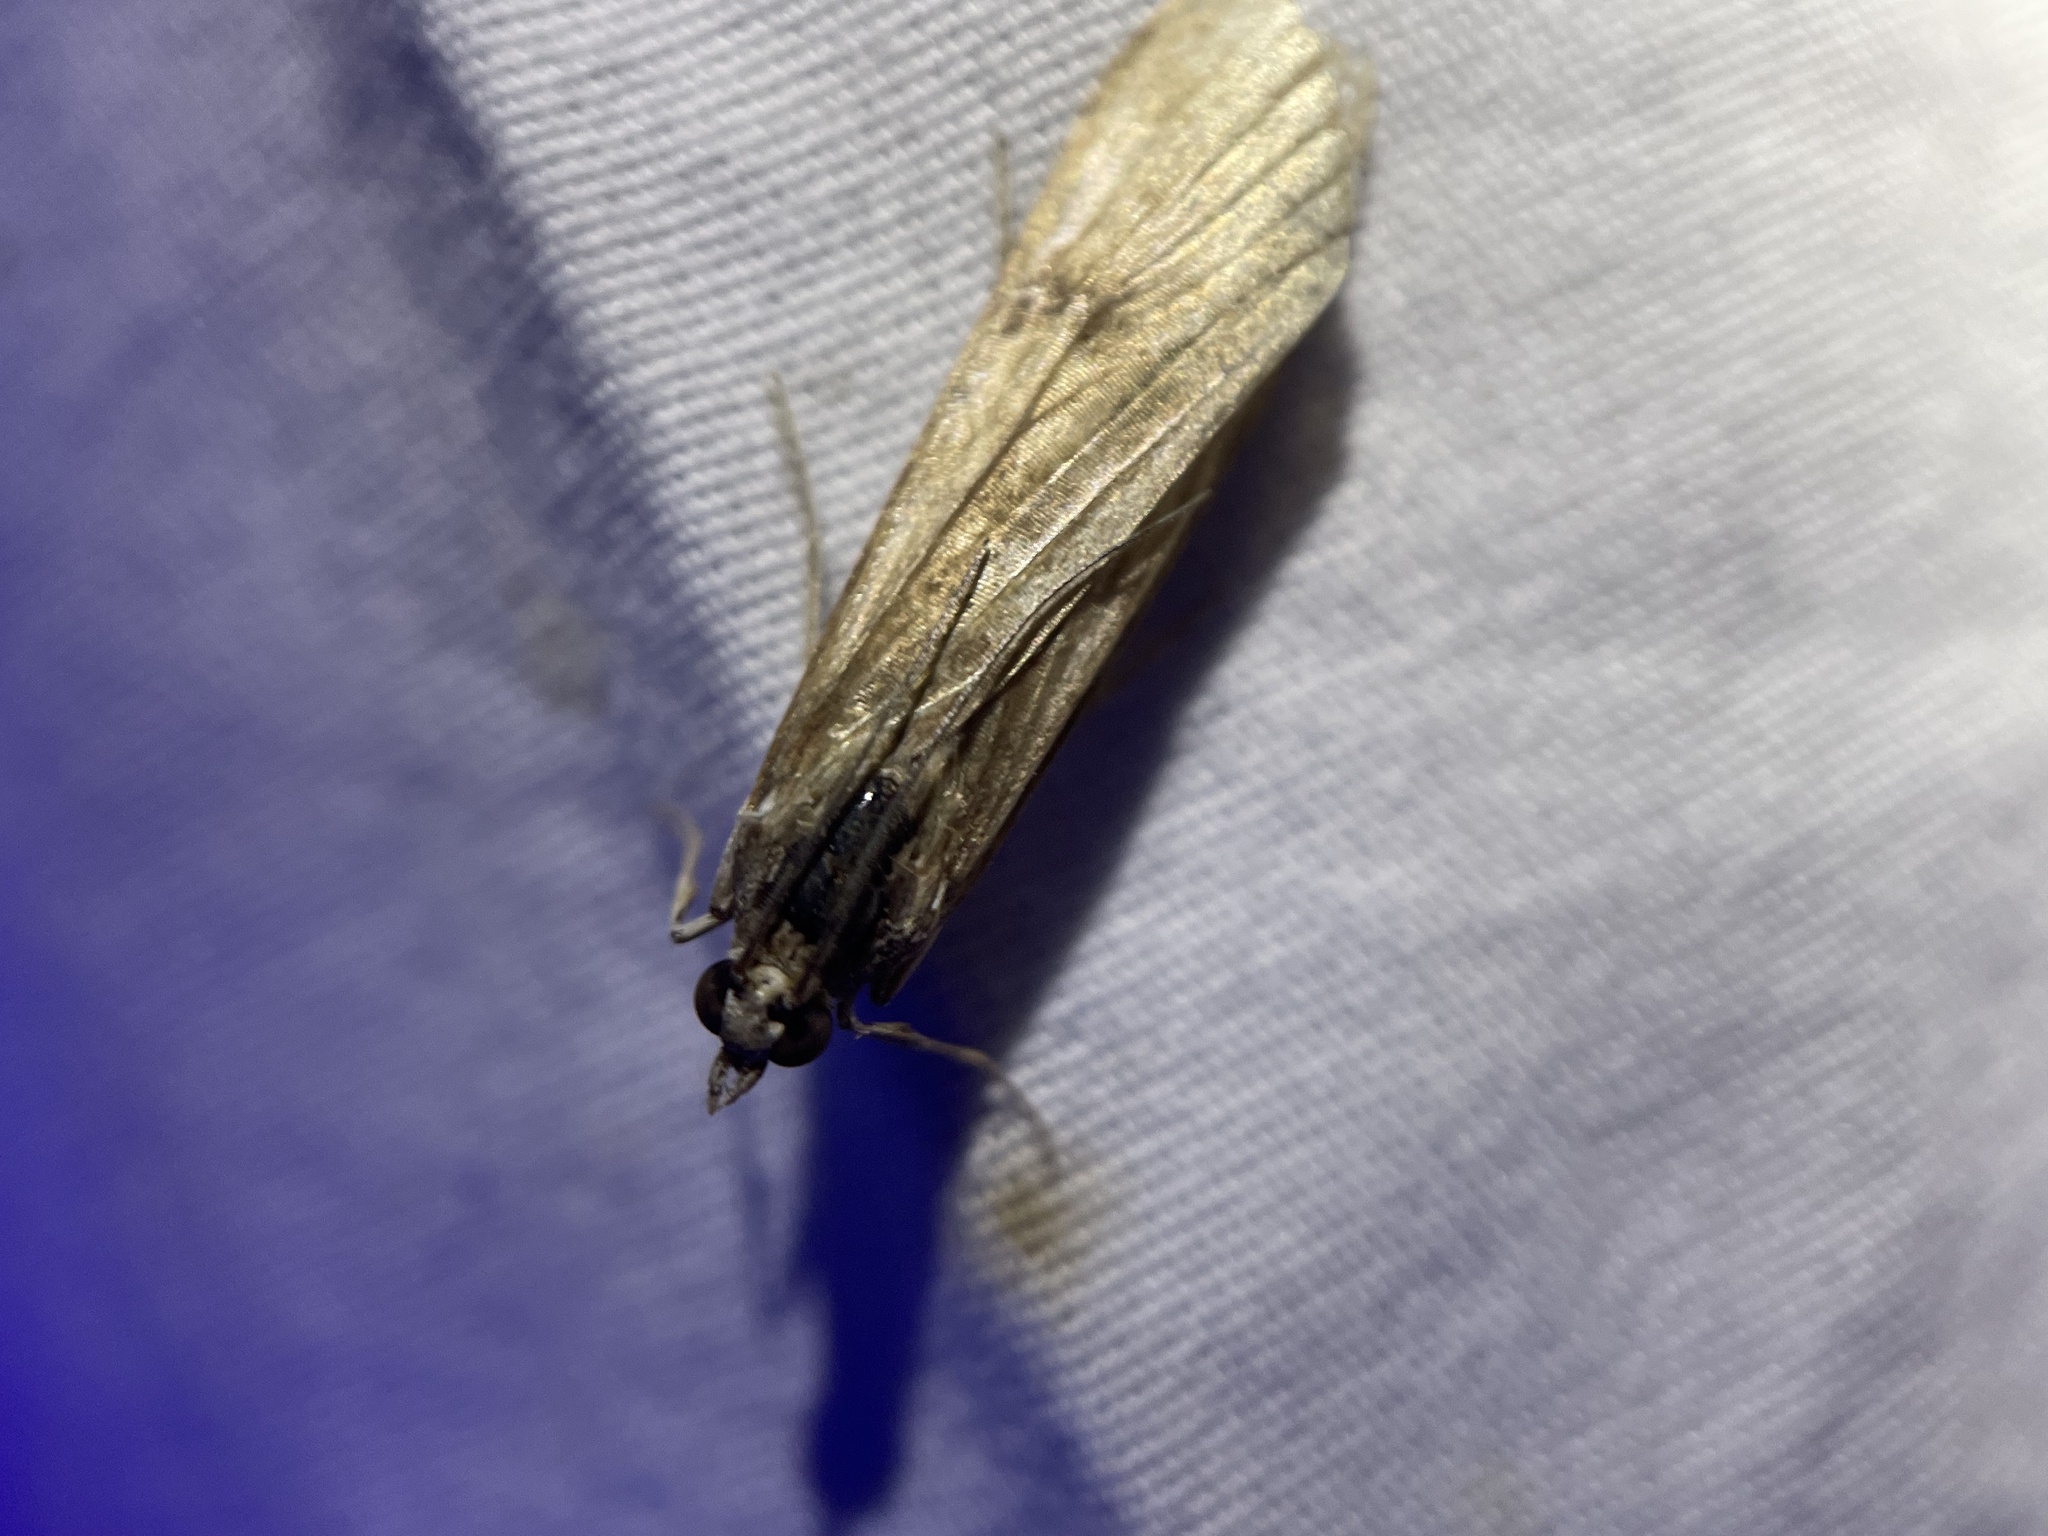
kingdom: Animalia
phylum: Arthropoda
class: Insecta
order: Lepidoptera
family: Crambidae
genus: Nomophila
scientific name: Nomophila nearctica
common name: American rush veneer
